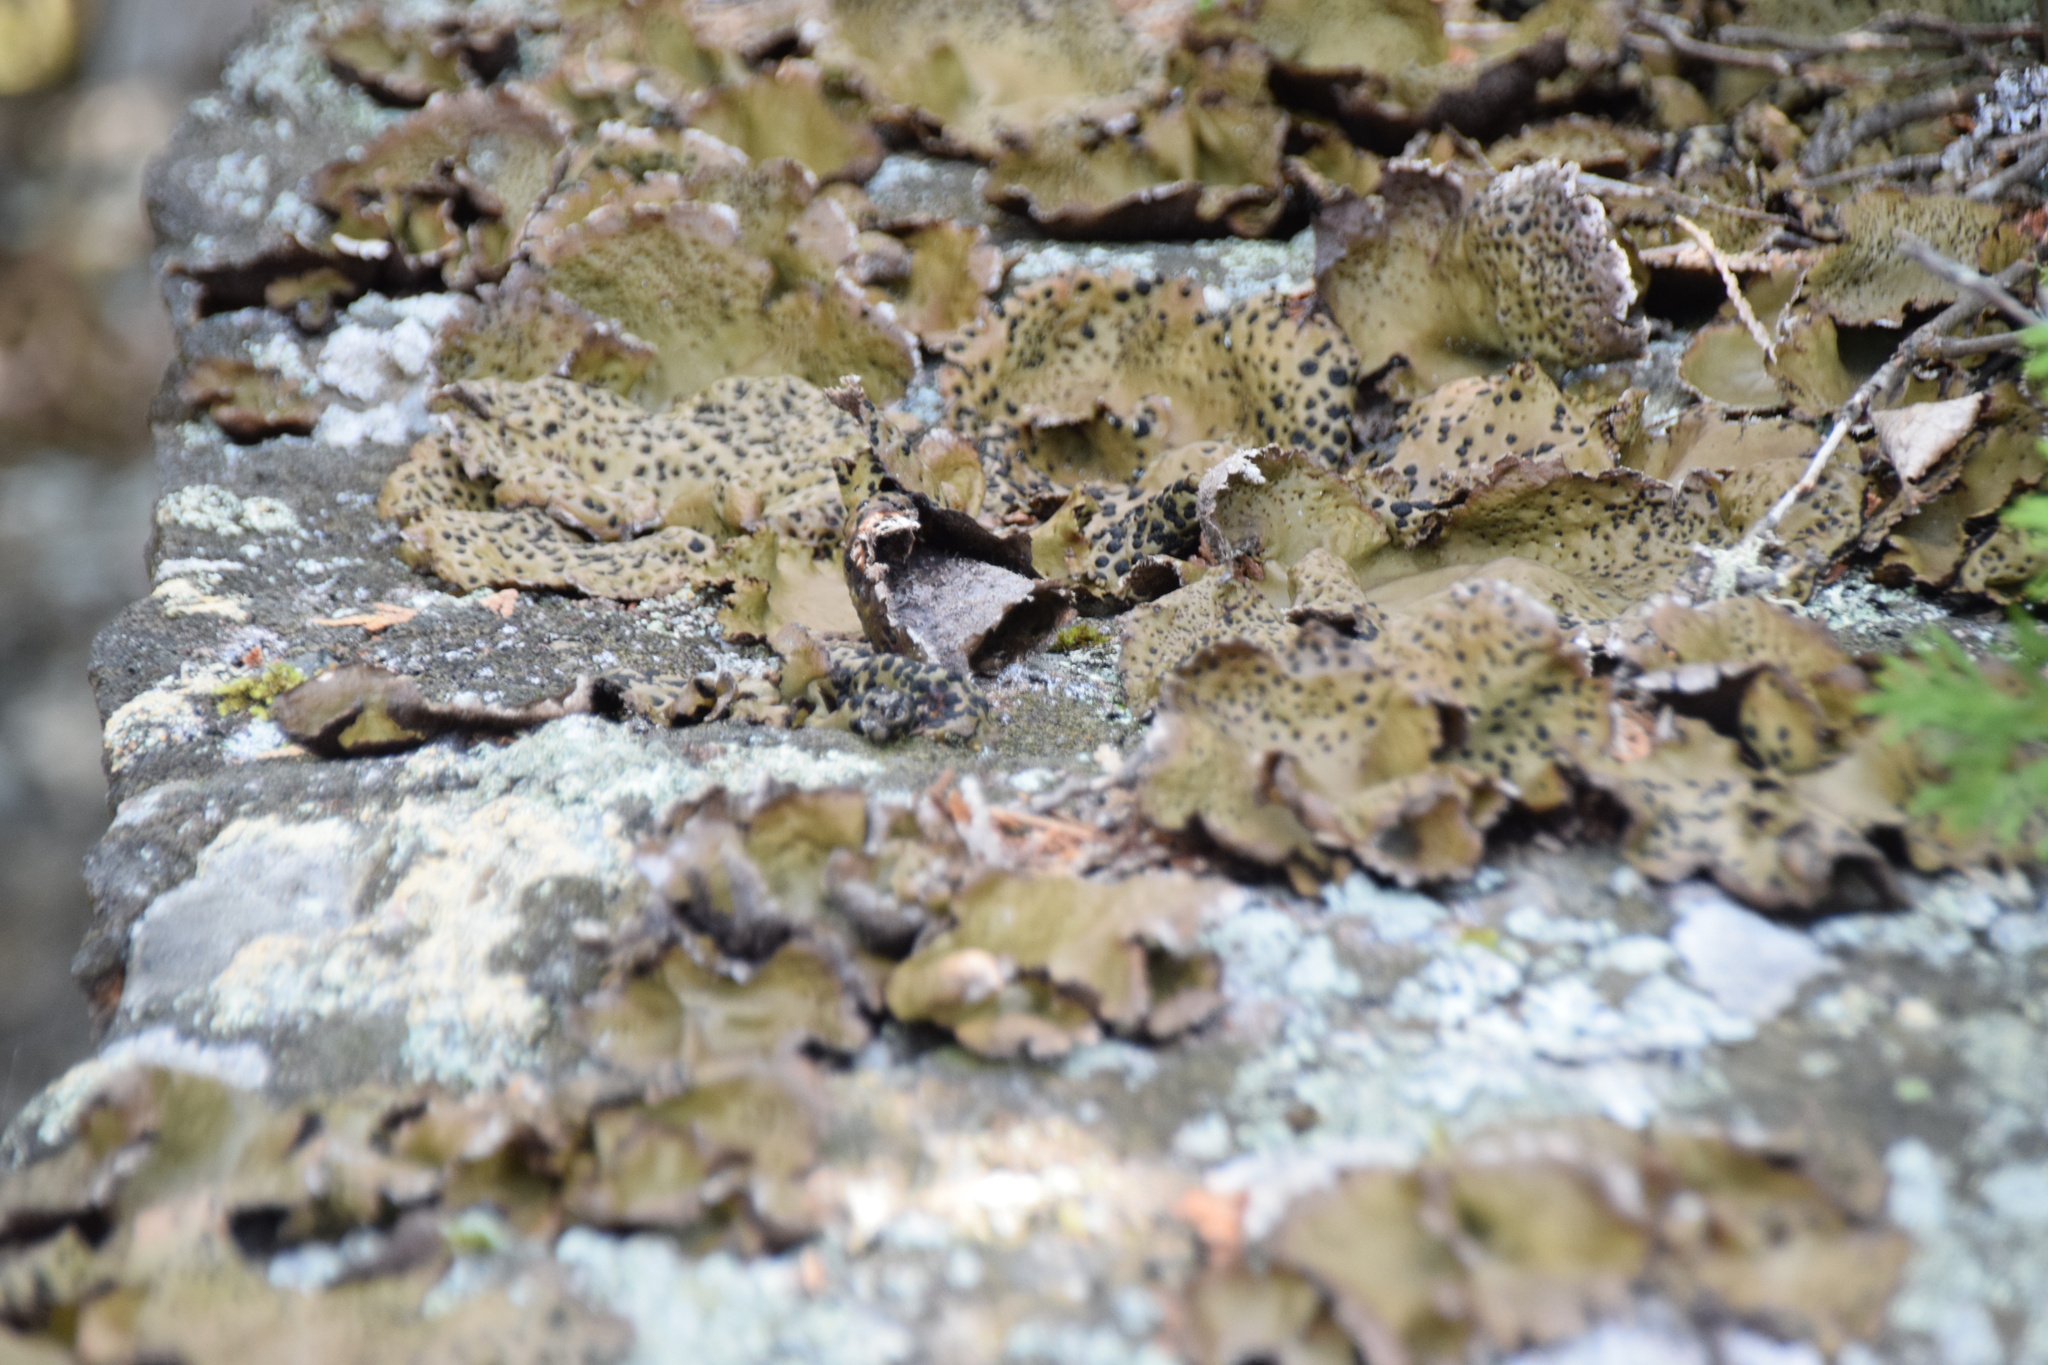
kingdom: Fungi
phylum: Ascomycota
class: Lecanoromycetes
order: Umbilicariales
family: Umbilicariaceae
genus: Umbilicaria
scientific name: Umbilicaria muhlenbergii
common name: Lesser rocktripe
